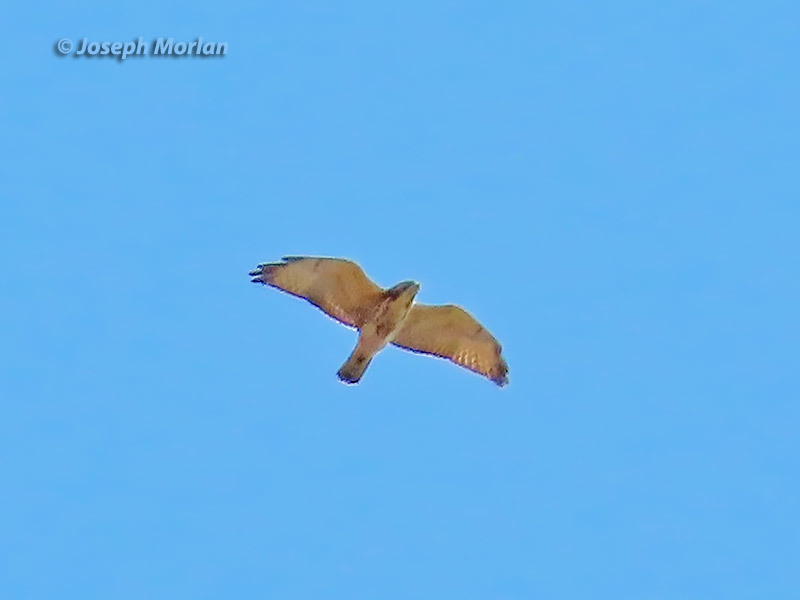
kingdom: Animalia
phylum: Chordata
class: Aves
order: Accipitriformes
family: Accipitridae
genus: Buteo
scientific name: Buteo platypterus
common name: Broad-winged hawk
